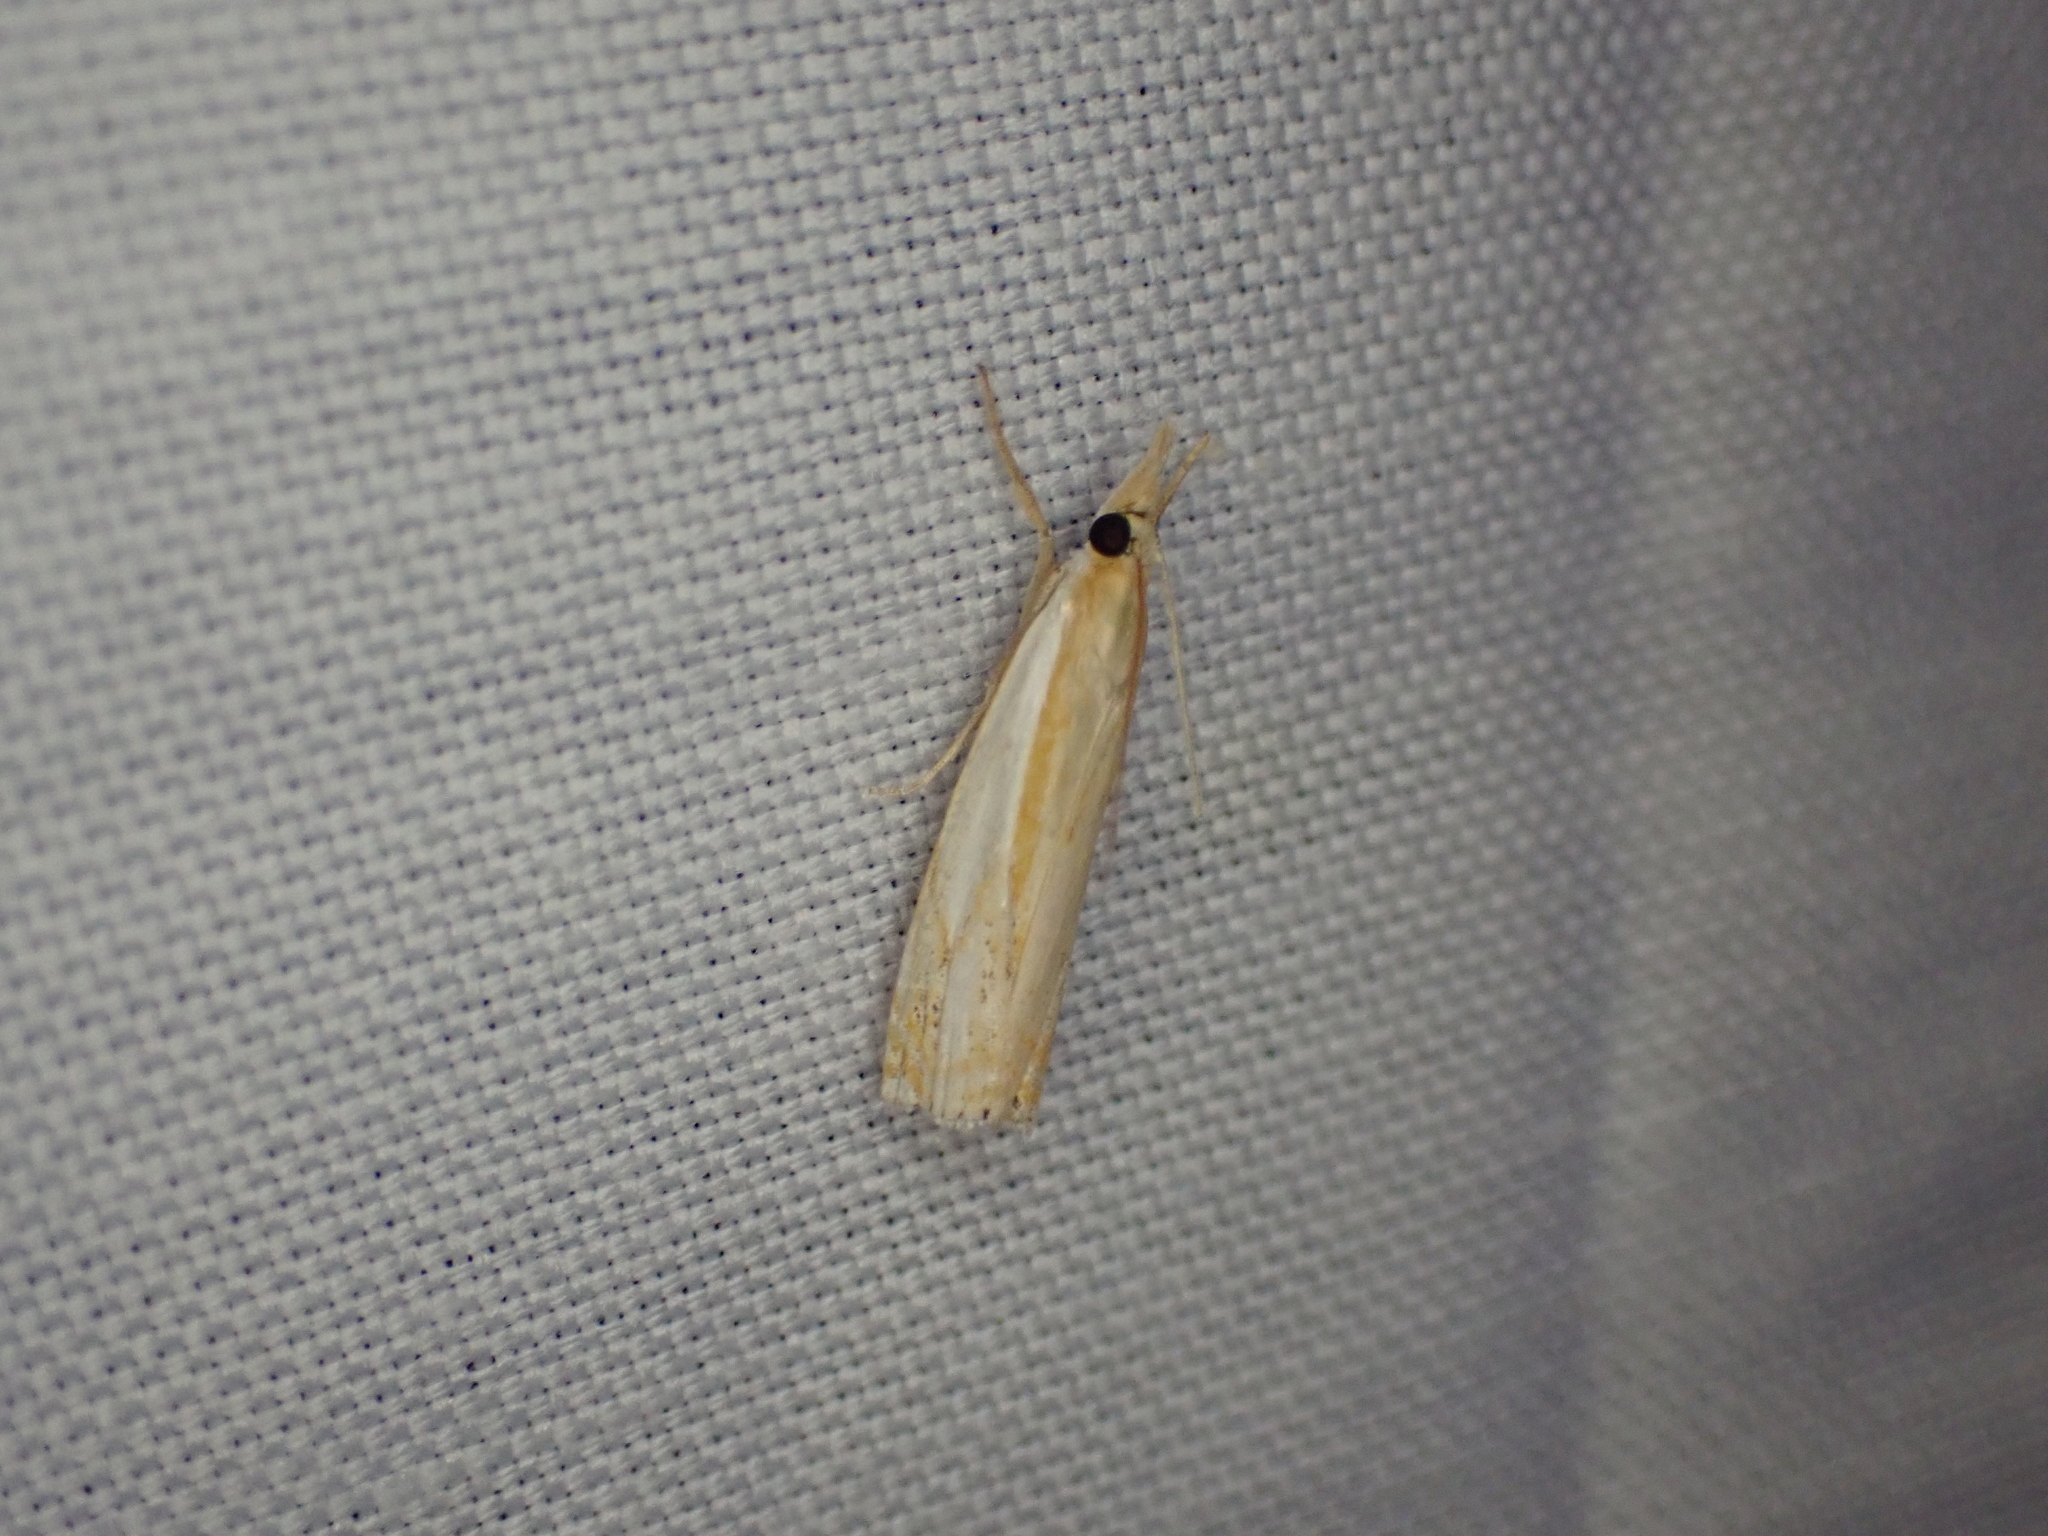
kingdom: Animalia
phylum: Arthropoda
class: Insecta
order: Lepidoptera
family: Crambidae
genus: Crambus
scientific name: Crambus agitatellus
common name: Double-banded grass-veneer
